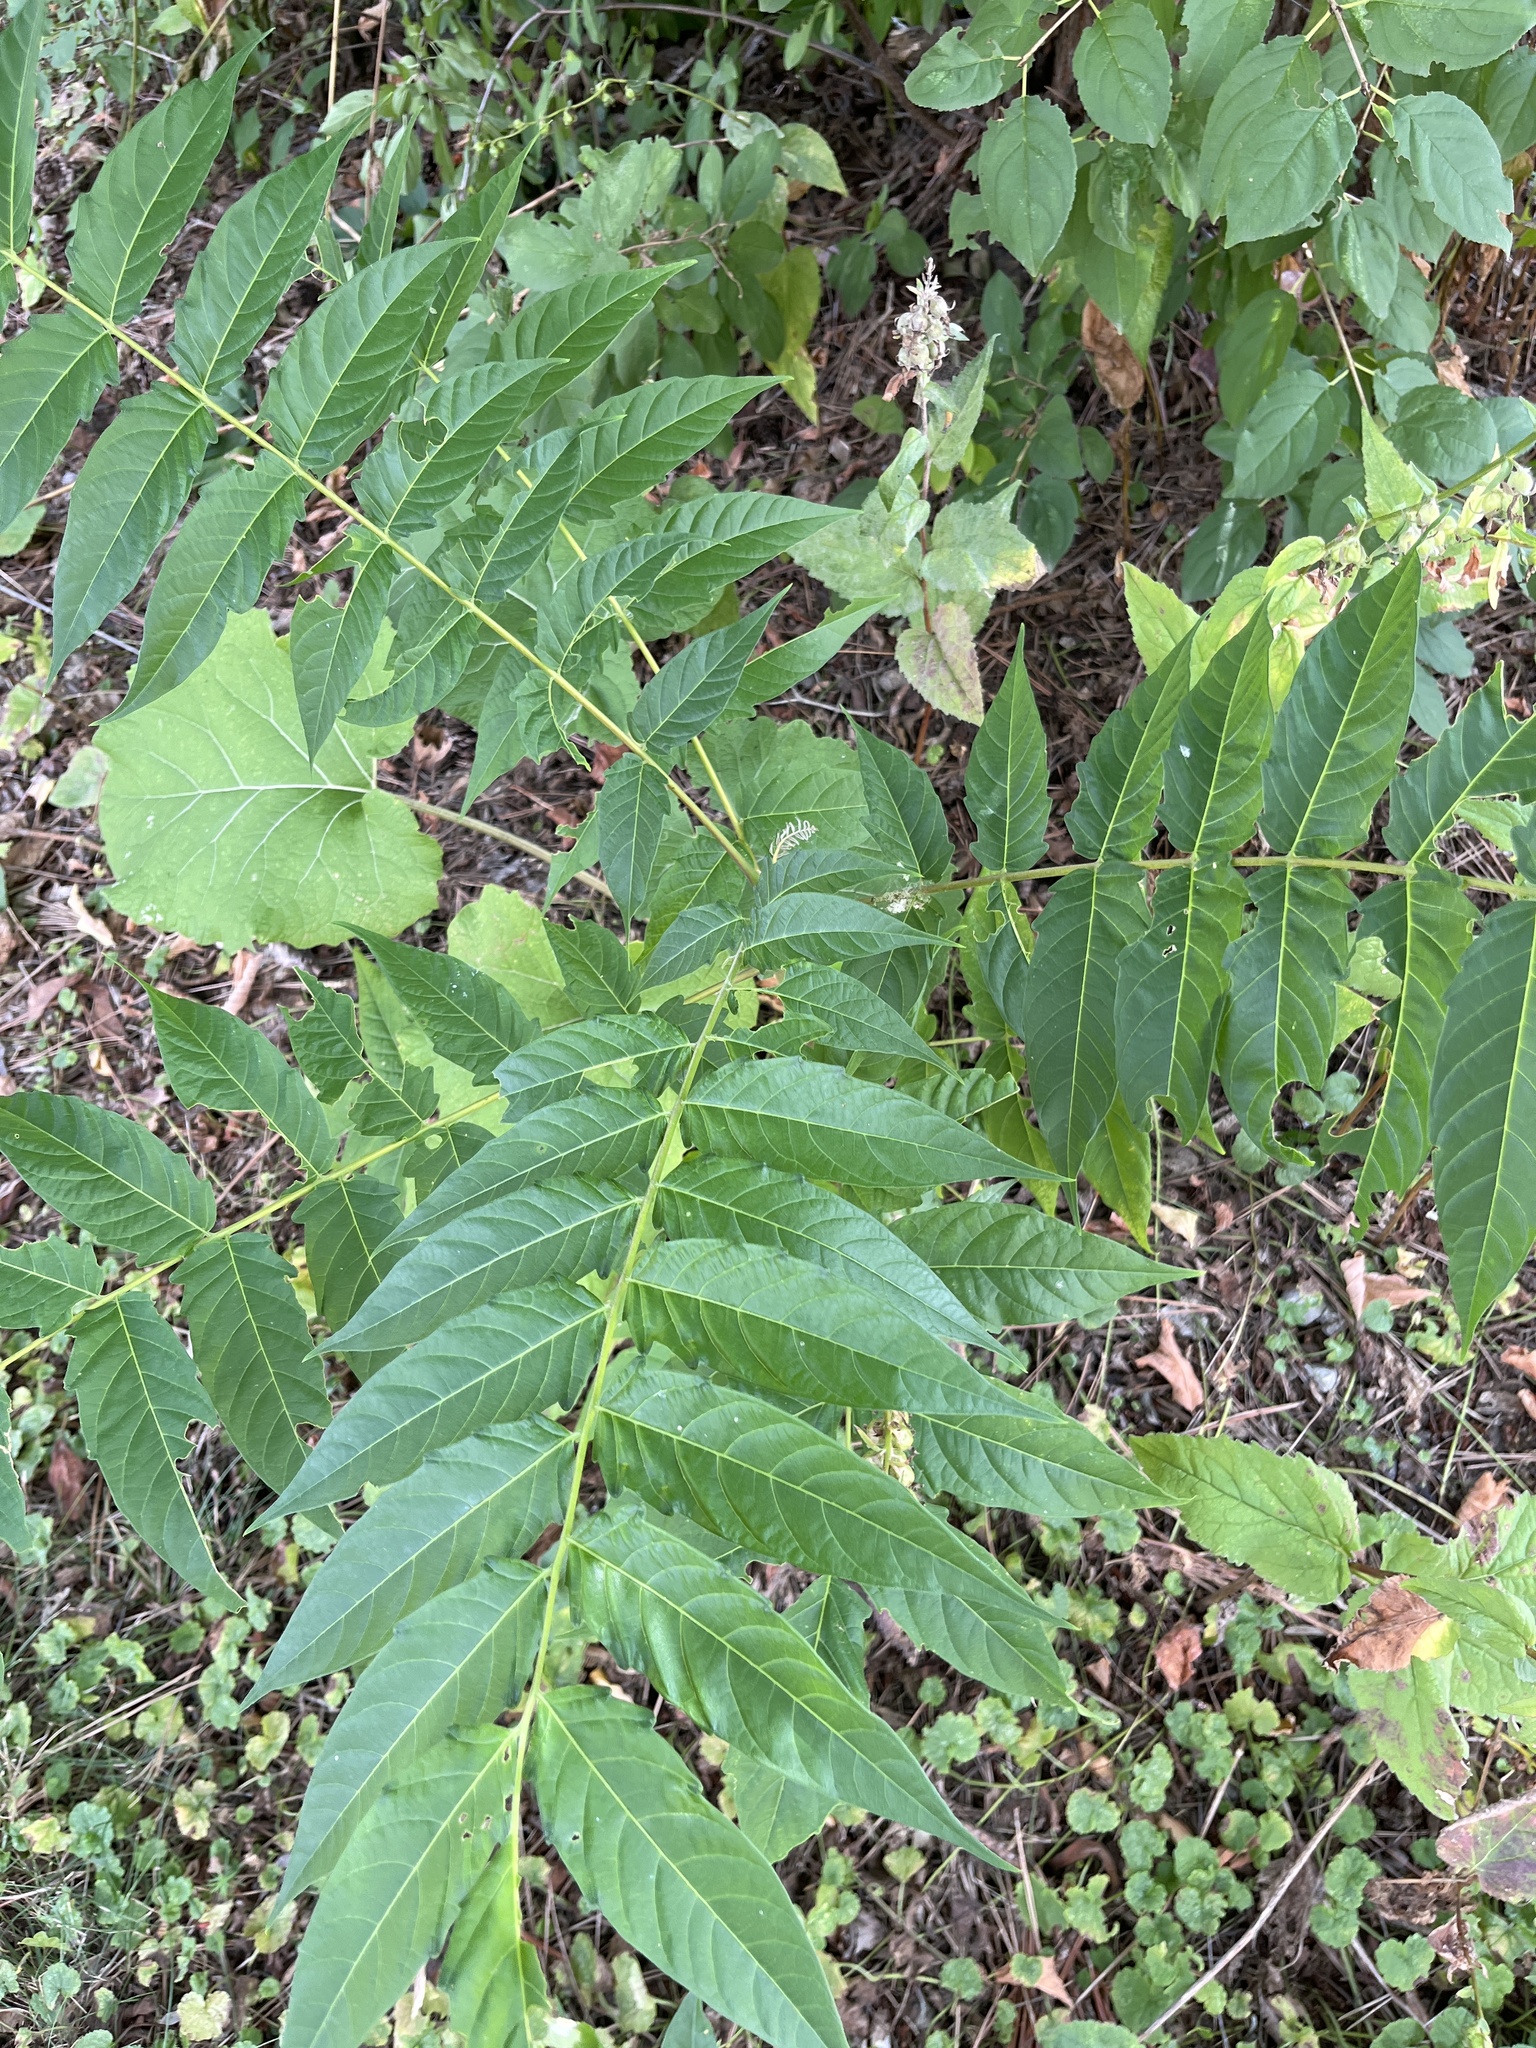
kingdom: Plantae
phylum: Tracheophyta
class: Magnoliopsida
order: Sapindales
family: Simaroubaceae
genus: Ailanthus
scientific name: Ailanthus altissima
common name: Tree-of-heaven
